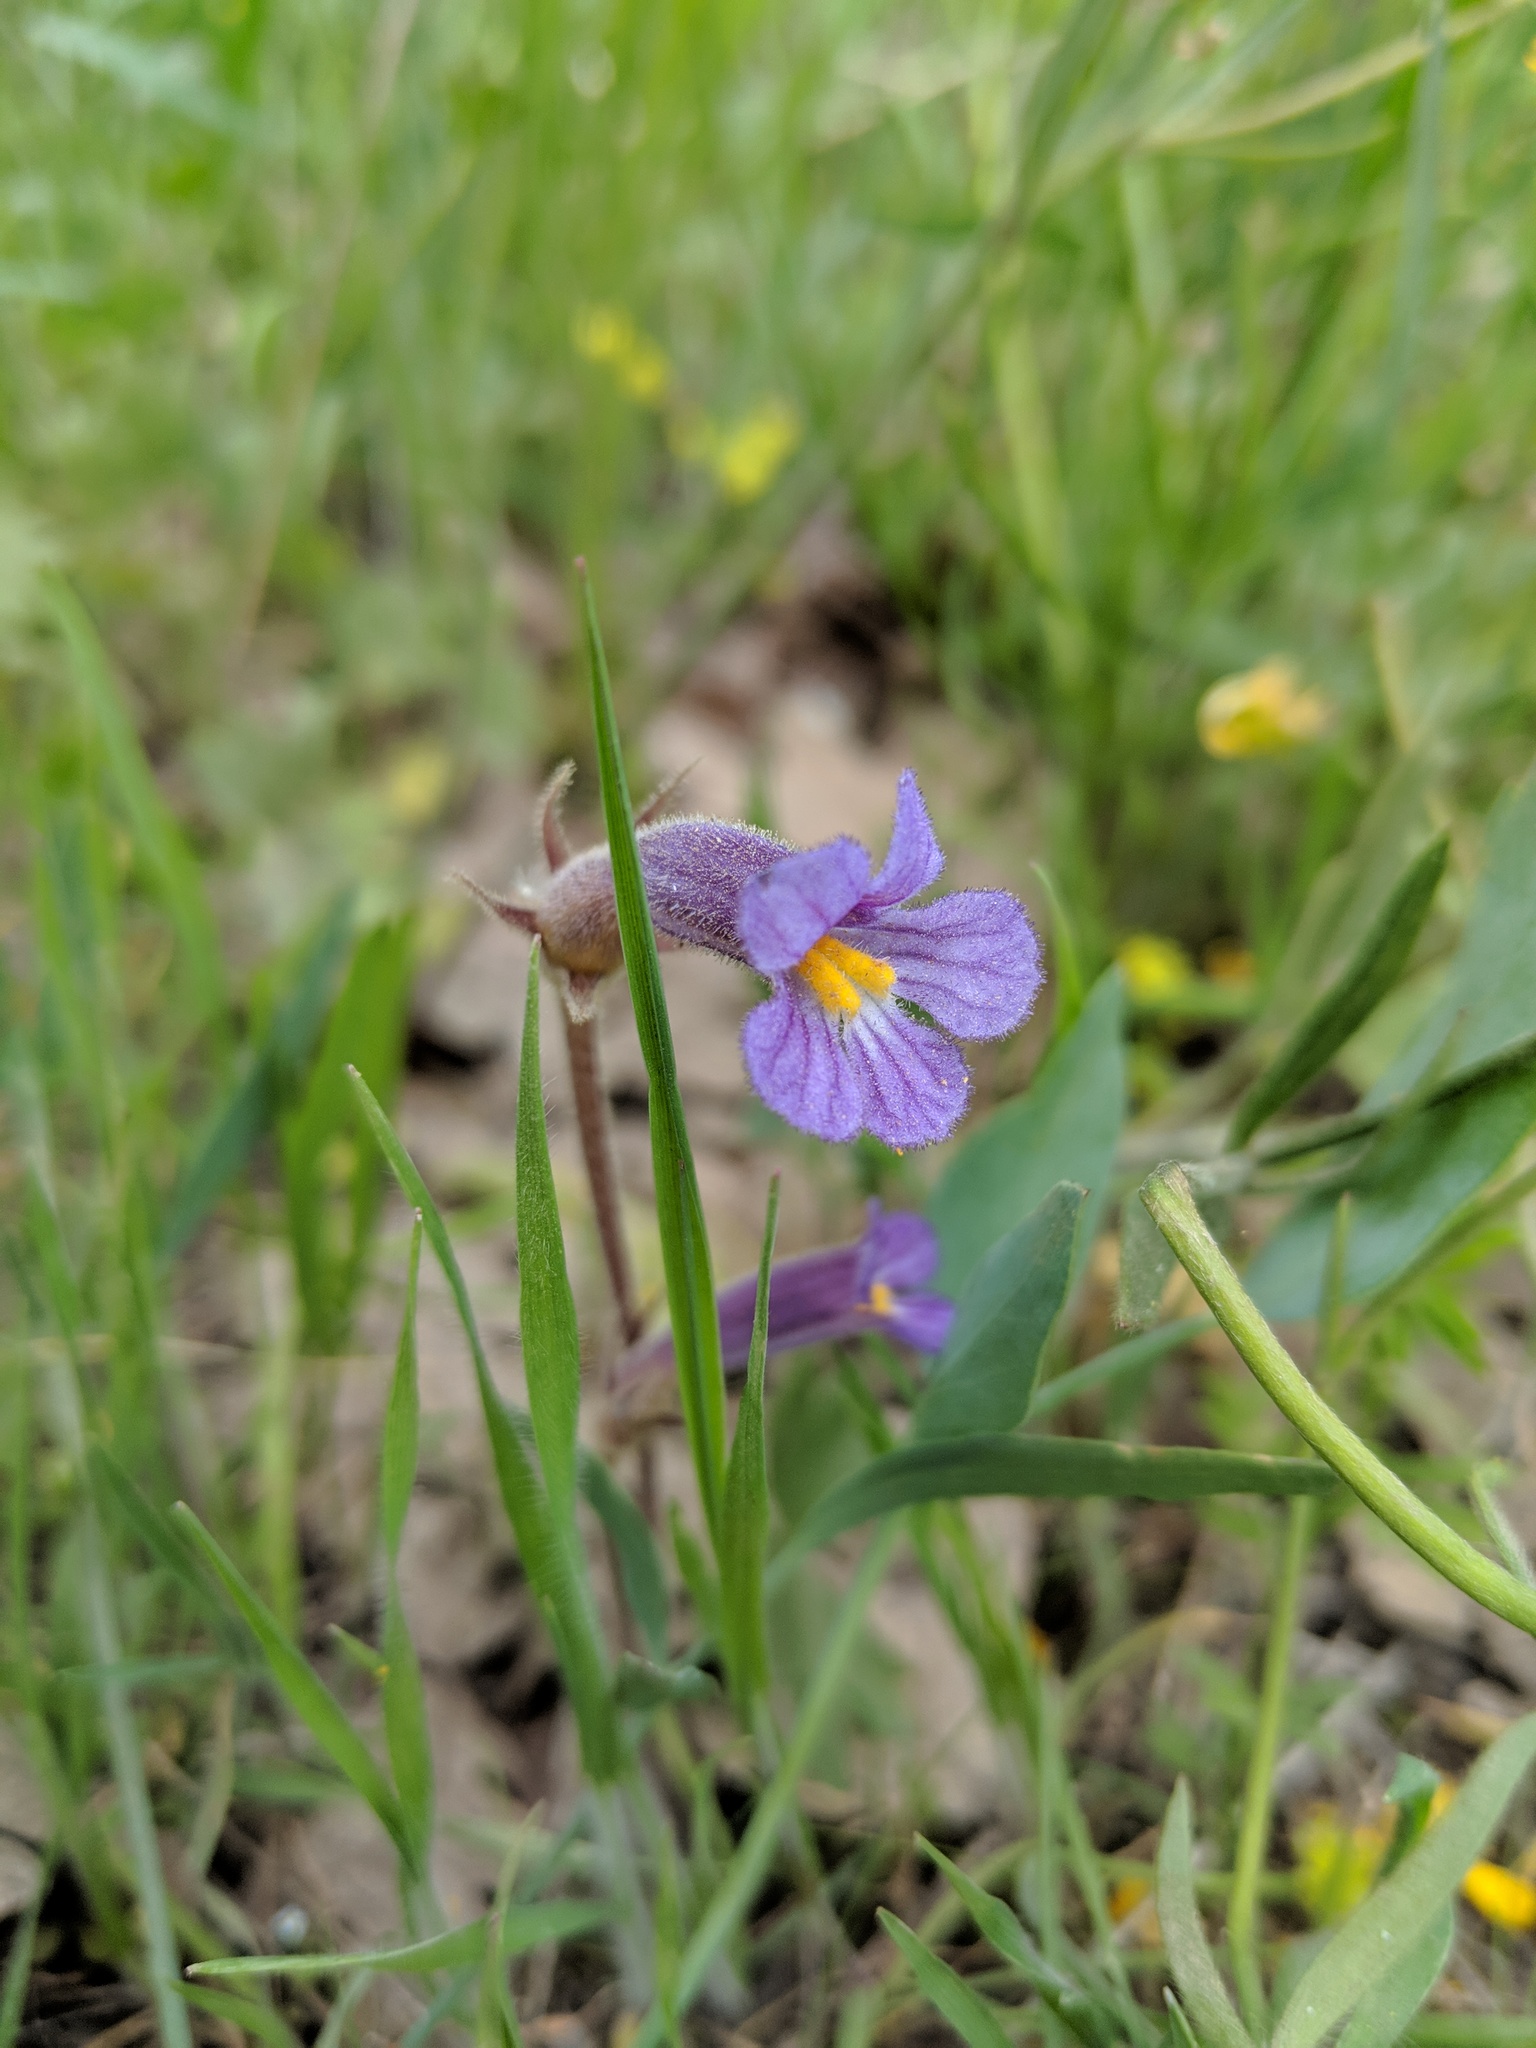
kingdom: Plantae
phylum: Tracheophyta
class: Magnoliopsida
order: Lamiales
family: Orobanchaceae
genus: Aphyllon
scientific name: Aphyllon uniflorum
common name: One-flowered broomrape
